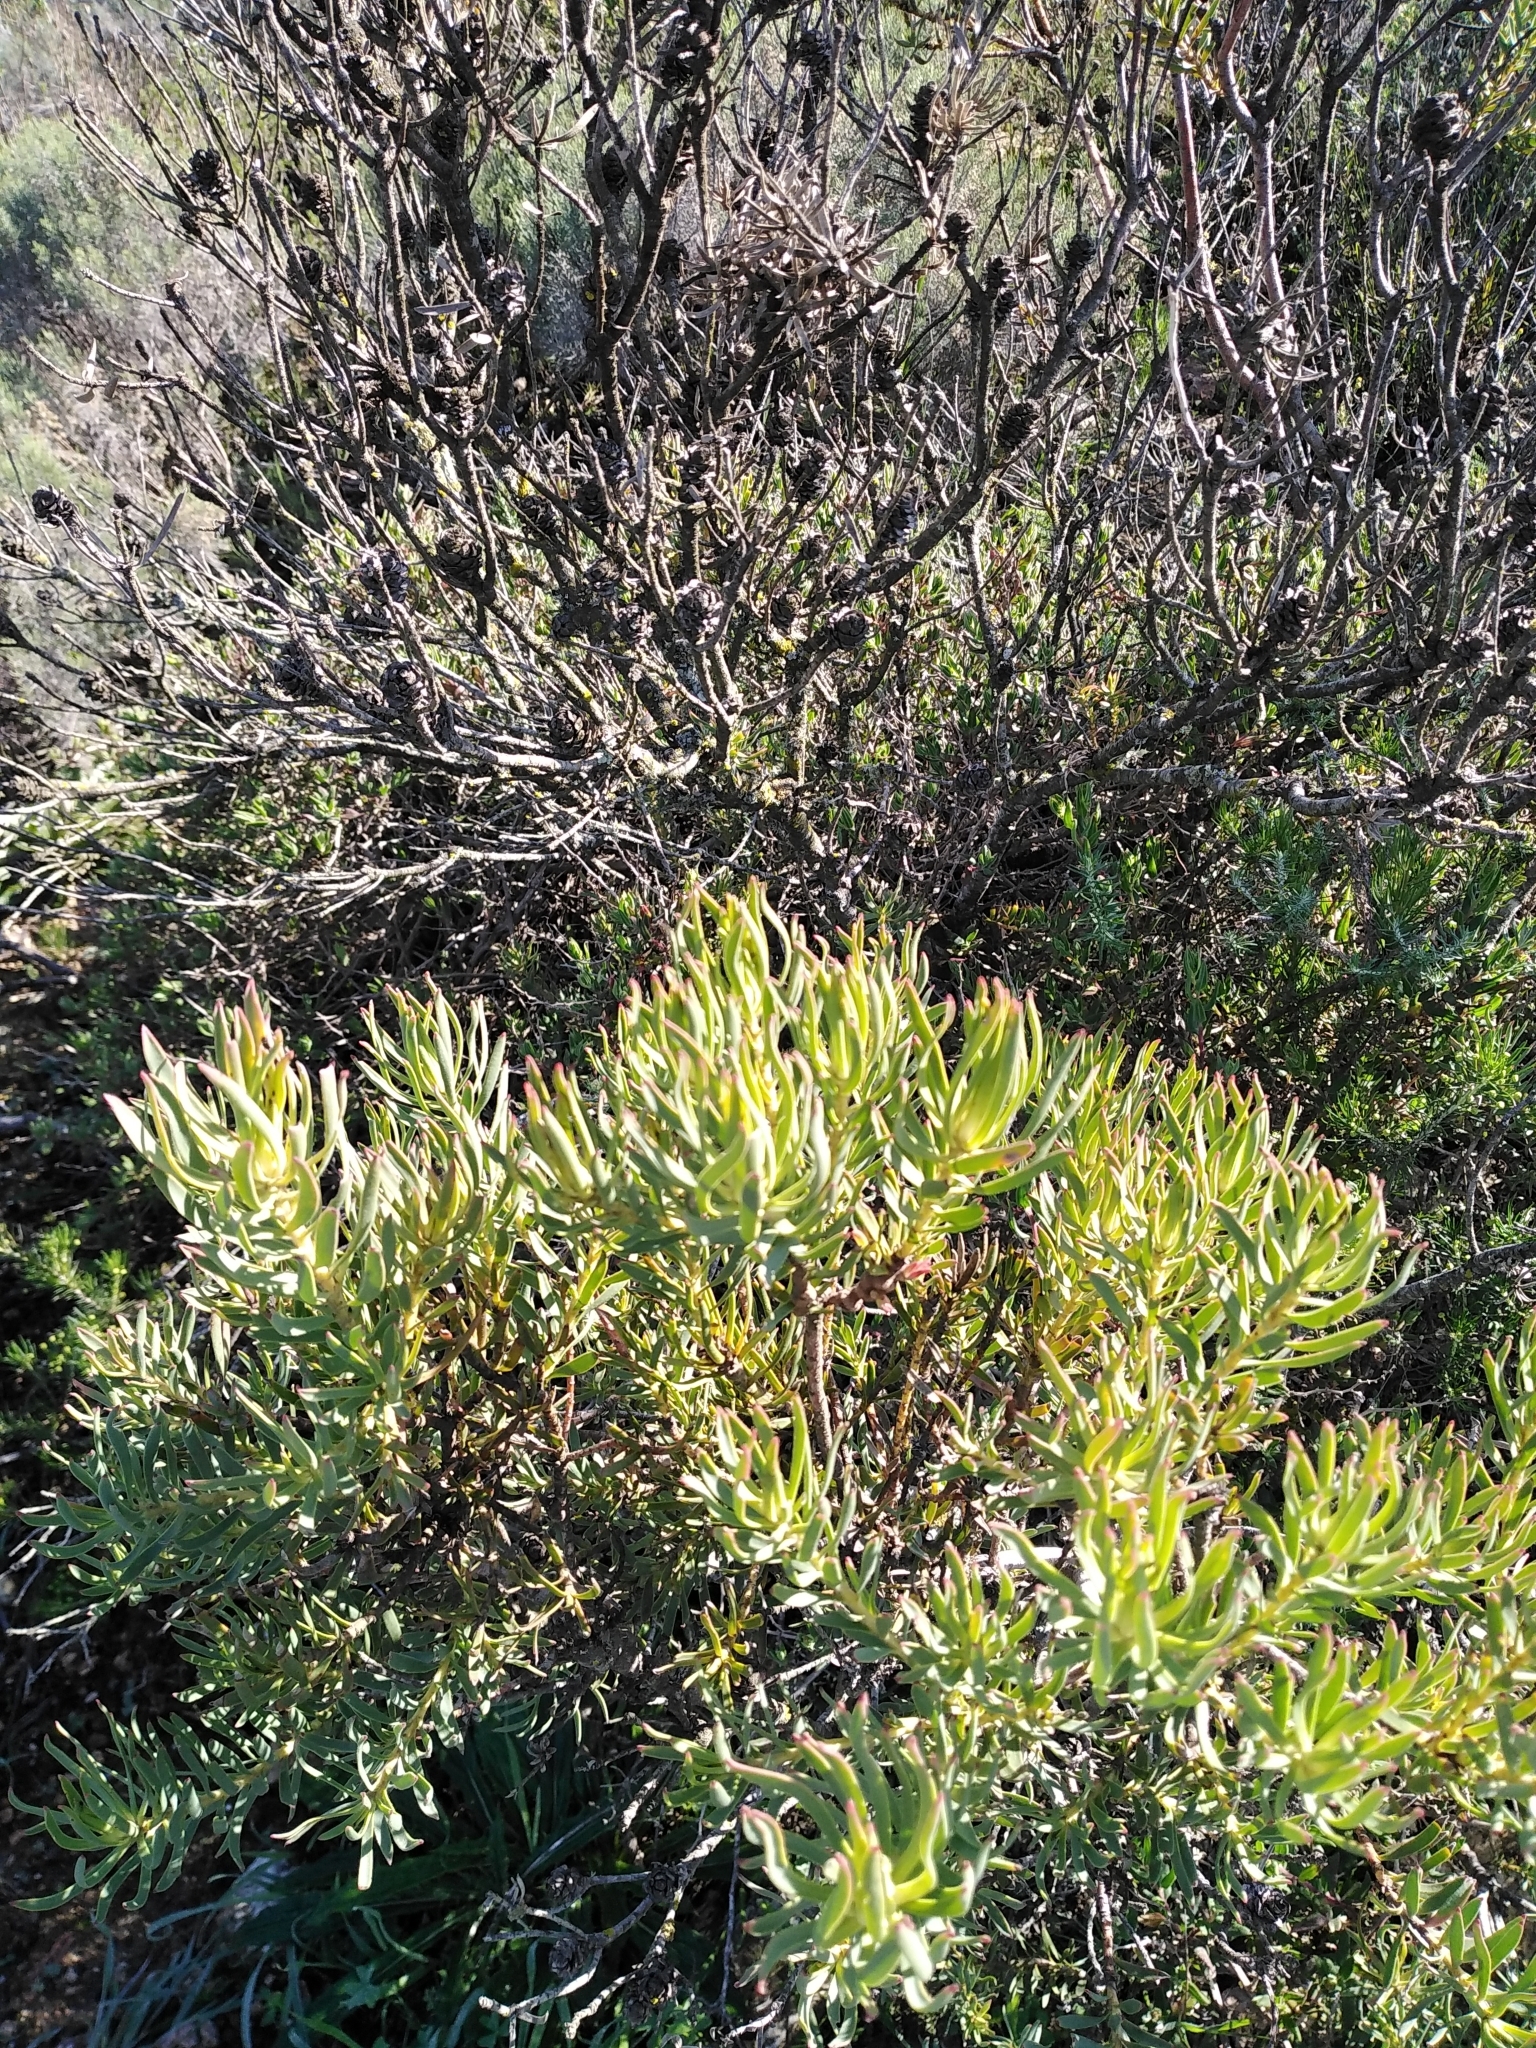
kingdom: Plantae
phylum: Tracheophyta
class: Magnoliopsida
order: Proteales
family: Proteaceae
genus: Leucadendron
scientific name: Leucadendron lanigerum
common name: Shale conebush
